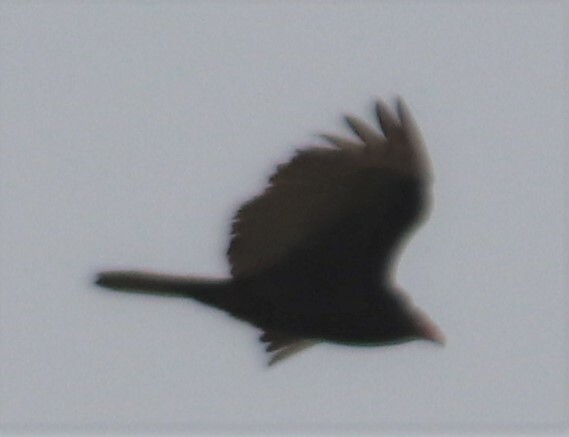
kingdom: Animalia
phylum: Chordata
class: Aves
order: Accipitriformes
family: Cathartidae
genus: Cathartes
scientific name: Cathartes aura
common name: Turkey vulture
